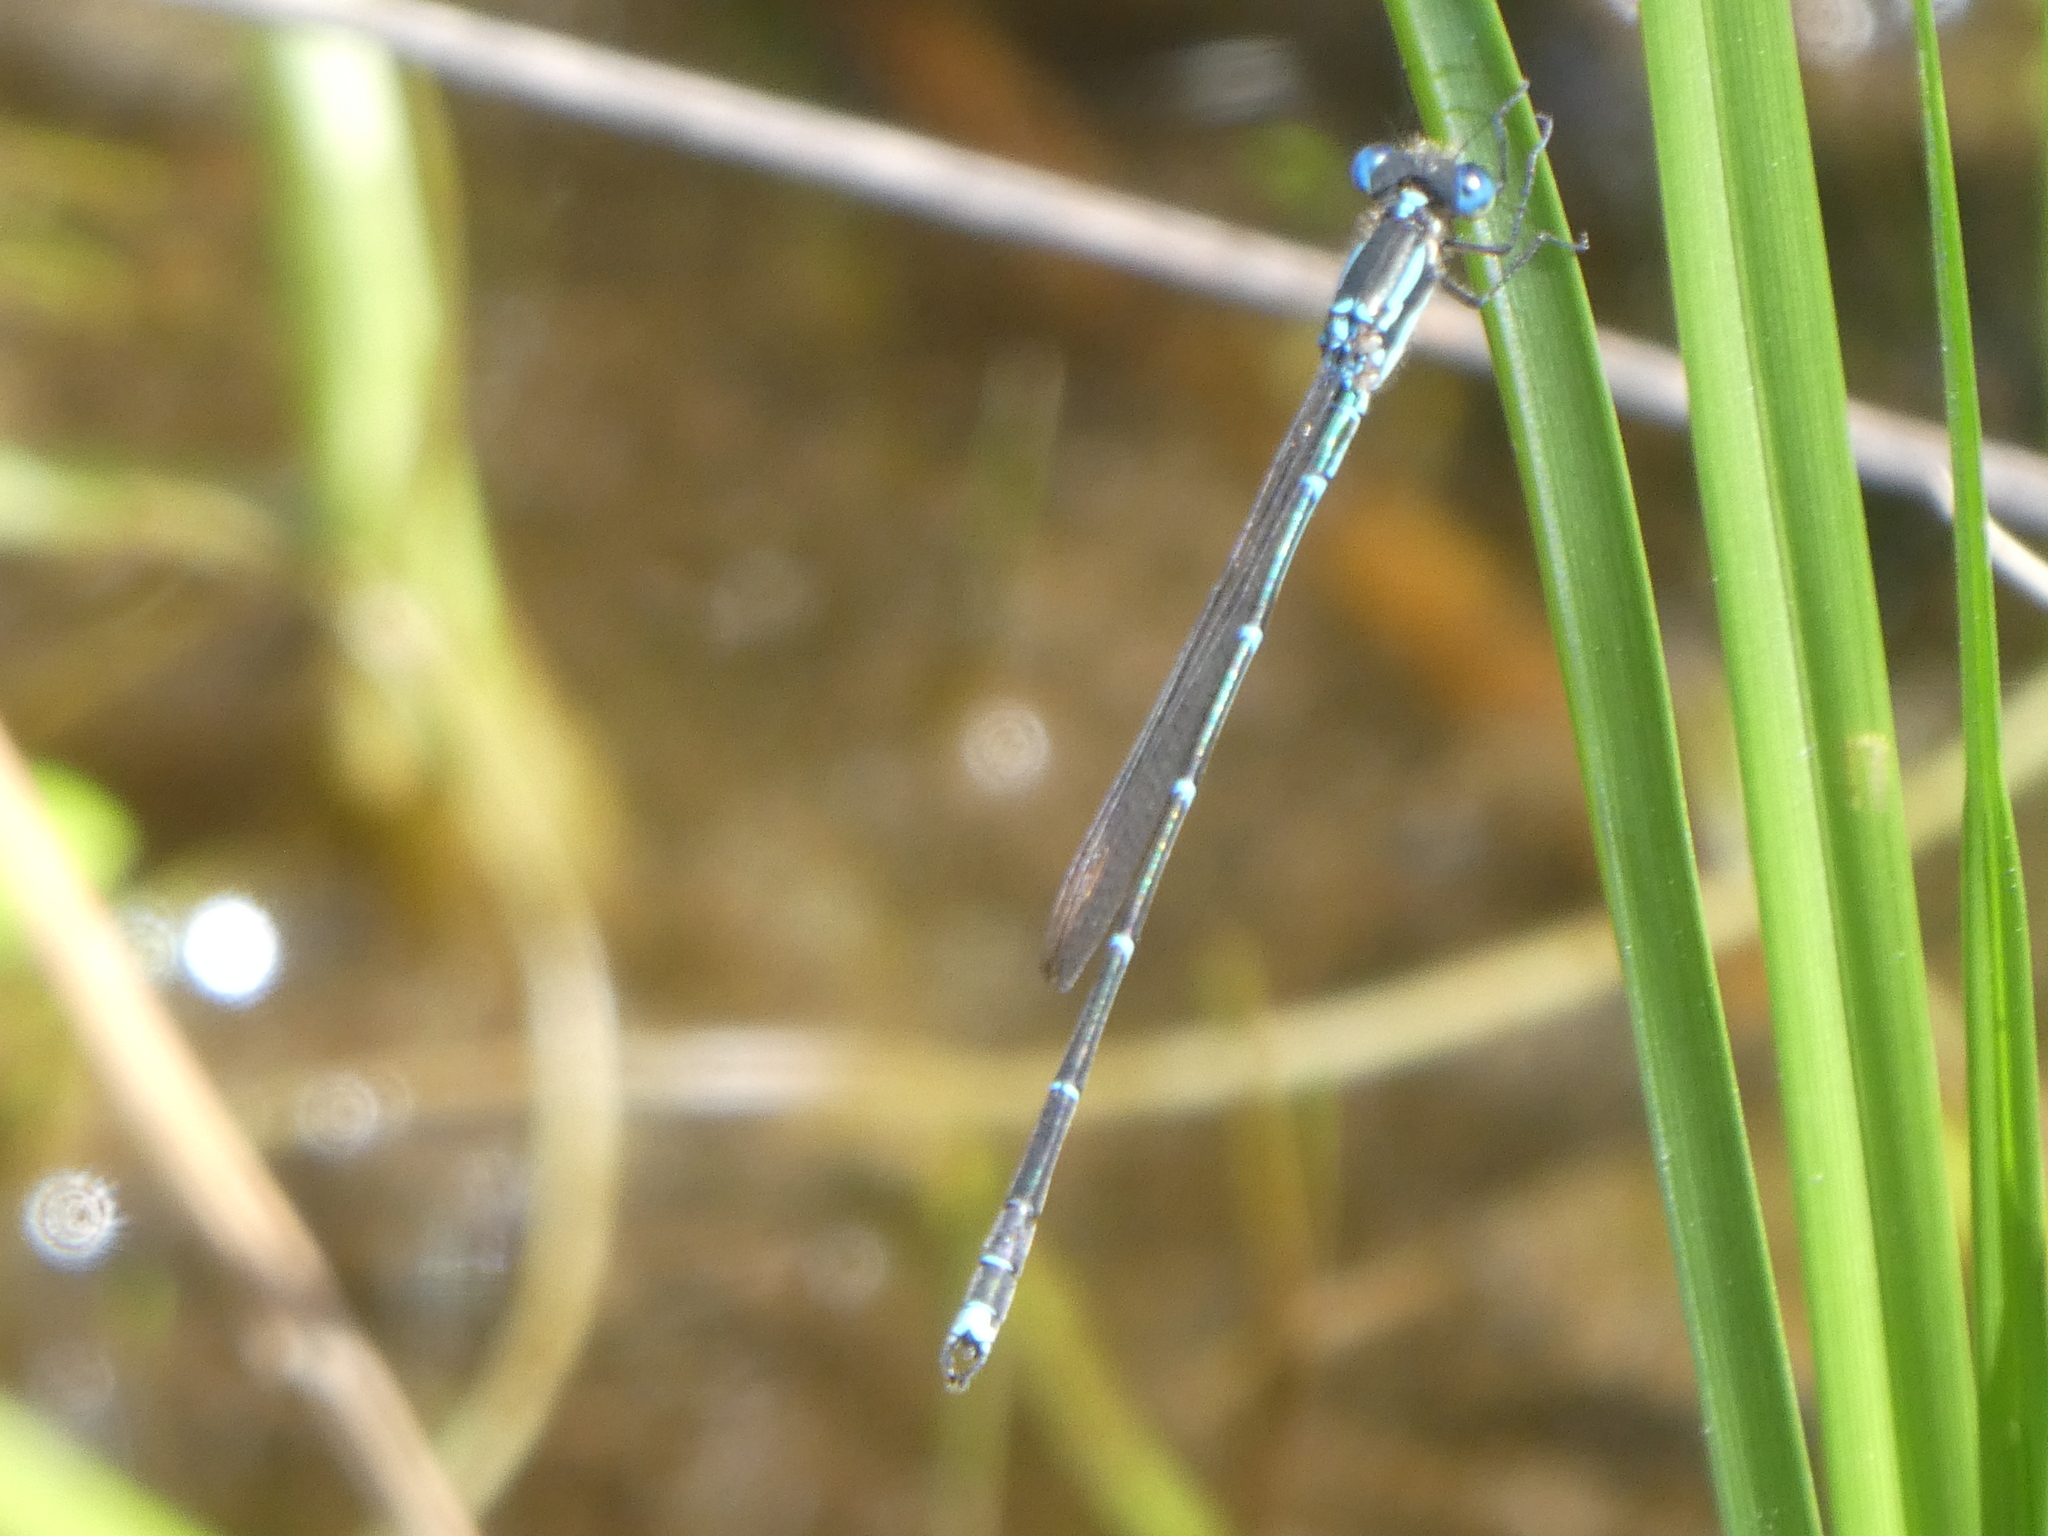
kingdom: Animalia
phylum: Arthropoda
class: Insecta
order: Odonata
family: Lestidae
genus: Austrolestes
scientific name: Austrolestes colensonis
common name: Blue damselfly
